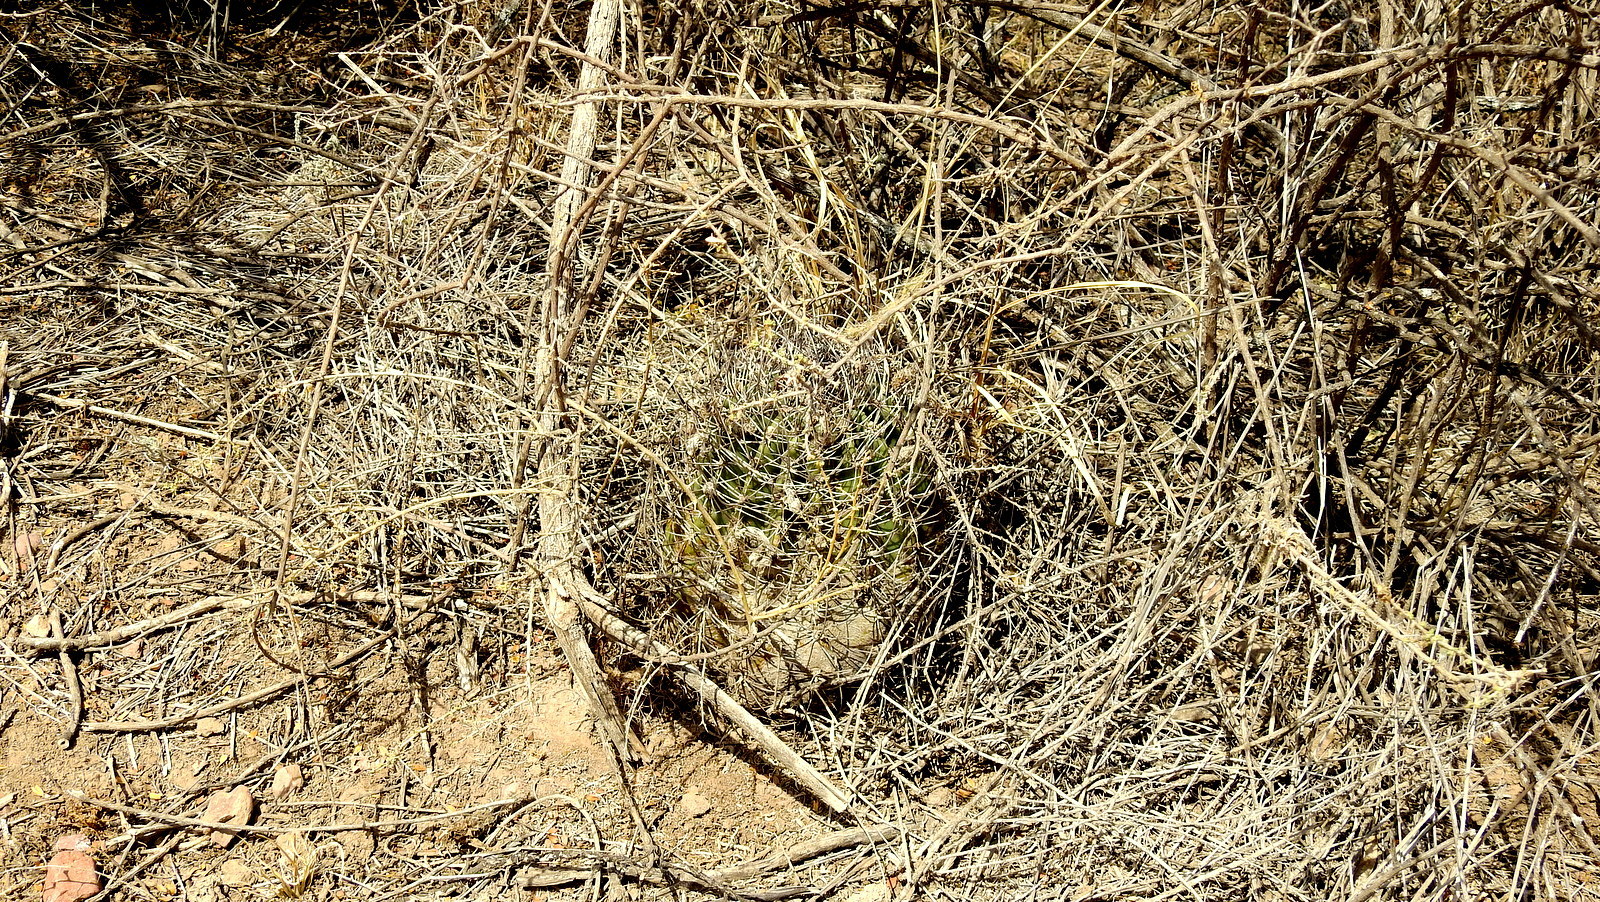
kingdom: Plantae
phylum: Tracheophyta
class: Magnoliopsida
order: Caryophyllales
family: Cactaceae
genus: Acanthocalycium
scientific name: Acanthocalycium leucanthum
